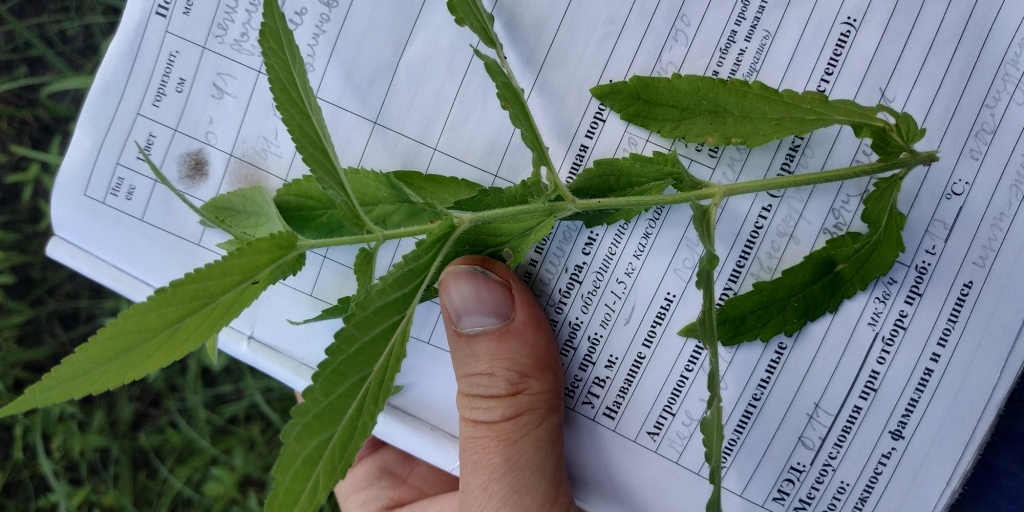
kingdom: Plantae
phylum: Tracheophyta
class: Magnoliopsida
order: Lamiales
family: Lamiaceae
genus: Stachys
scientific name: Stachys palustris
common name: Marsh woundwort
